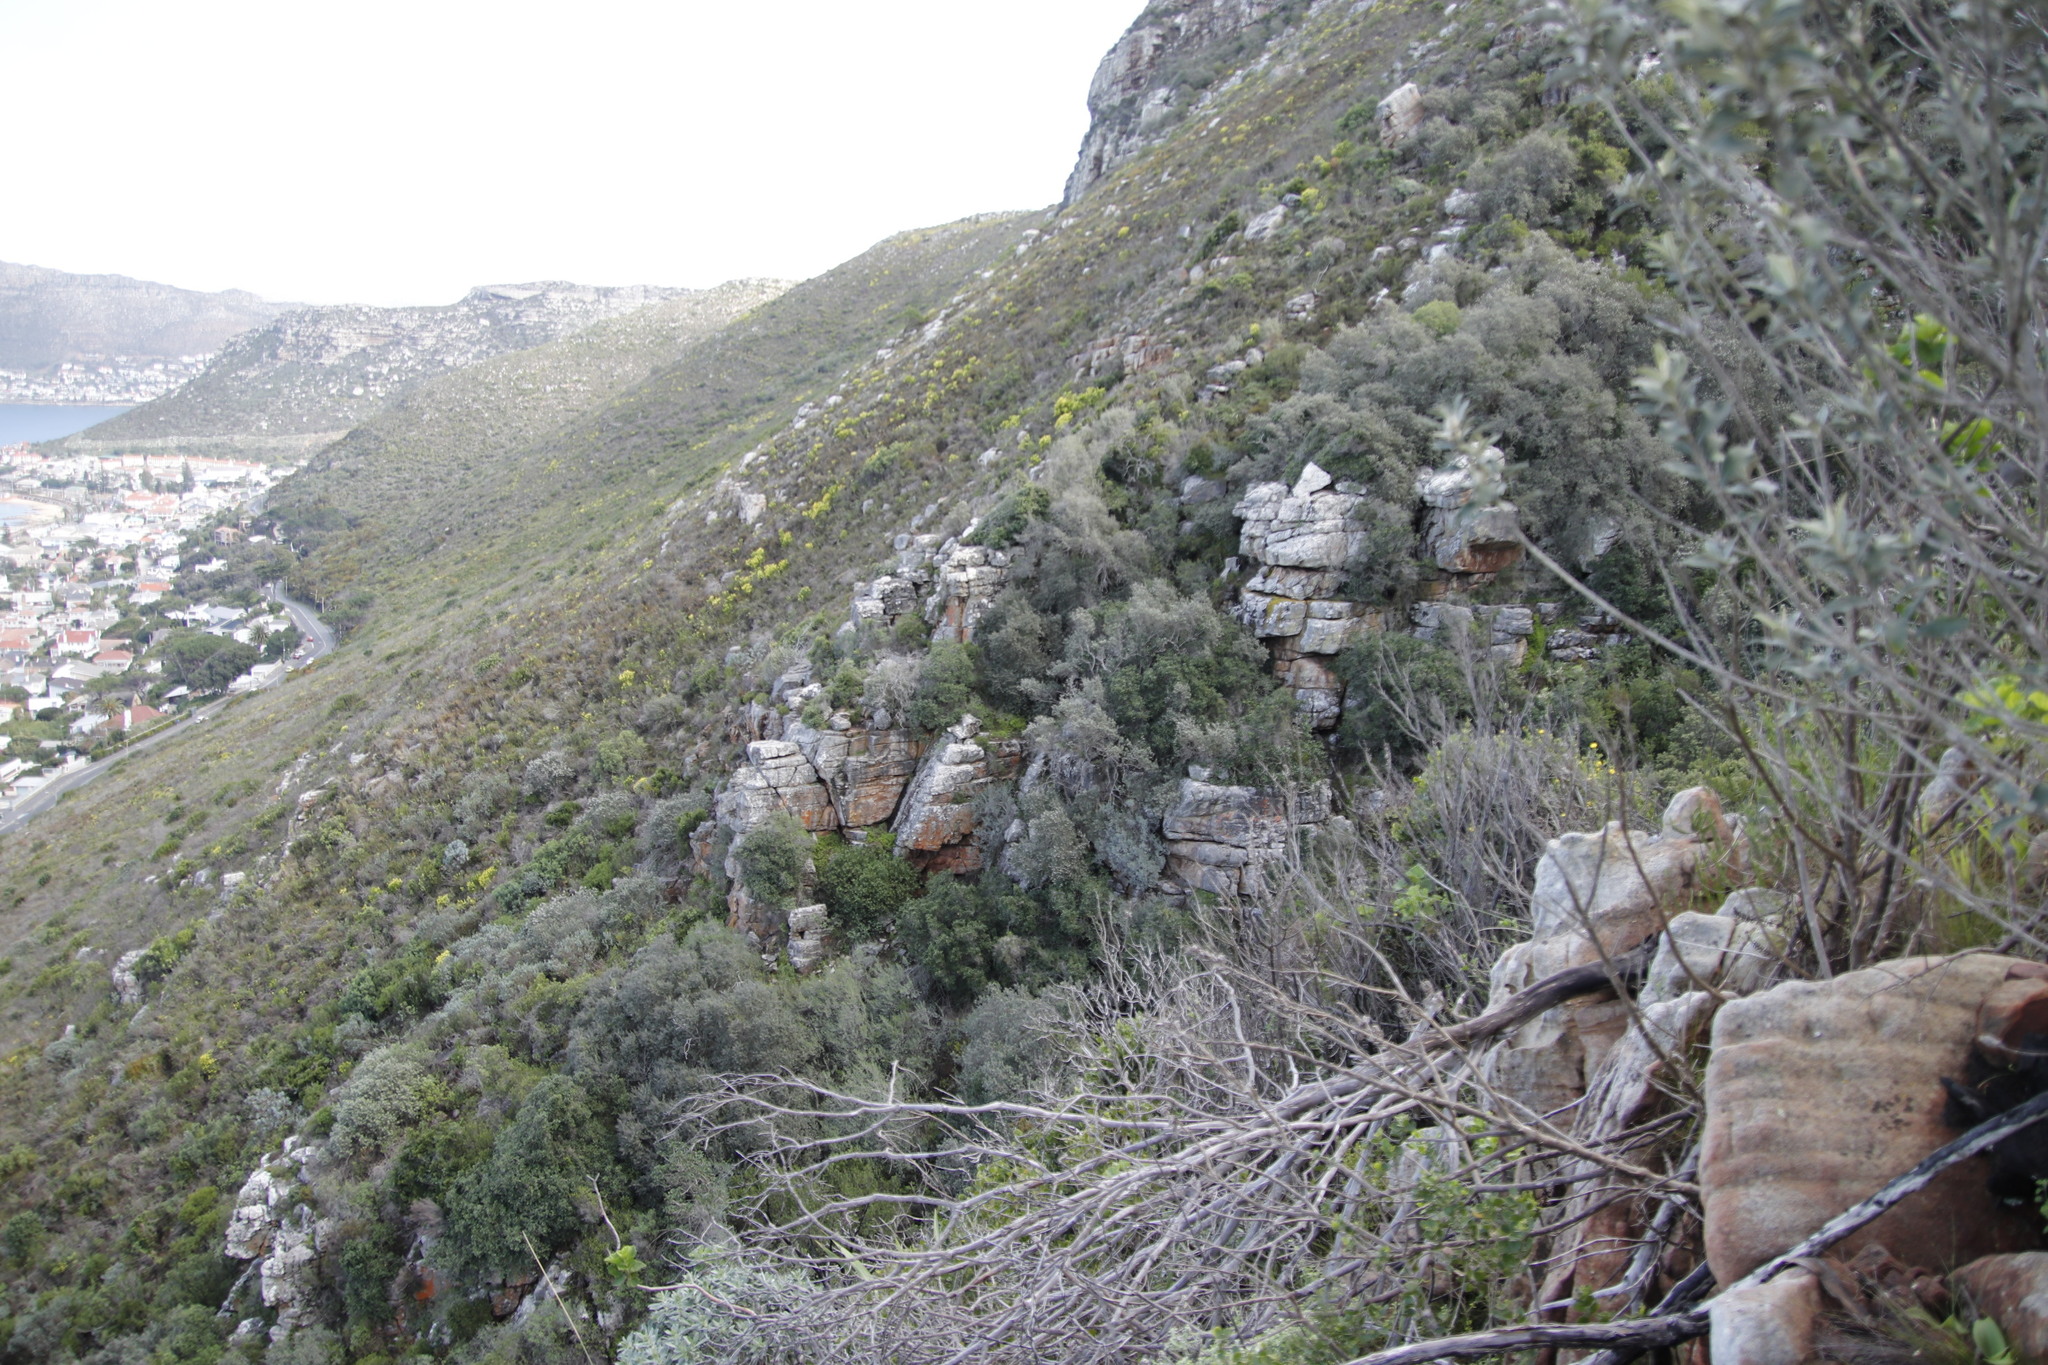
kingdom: Plantae
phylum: Tracheophyta
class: Magnoliopsida
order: Asterales
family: Asteraceae
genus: Tarchonanthus
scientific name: Tarchonanthus littoralis
